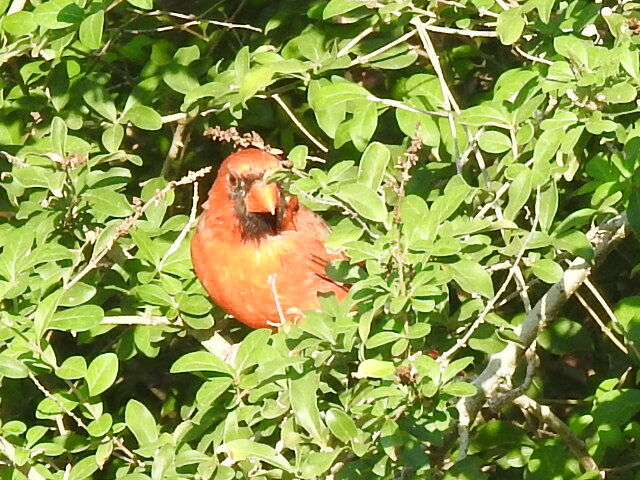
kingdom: Animalia
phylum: Chordata
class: Aves
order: Passeriformes
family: Cardinalidae
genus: Cardinalis
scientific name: Cardinalis cardinalis
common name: Northern cardinal
